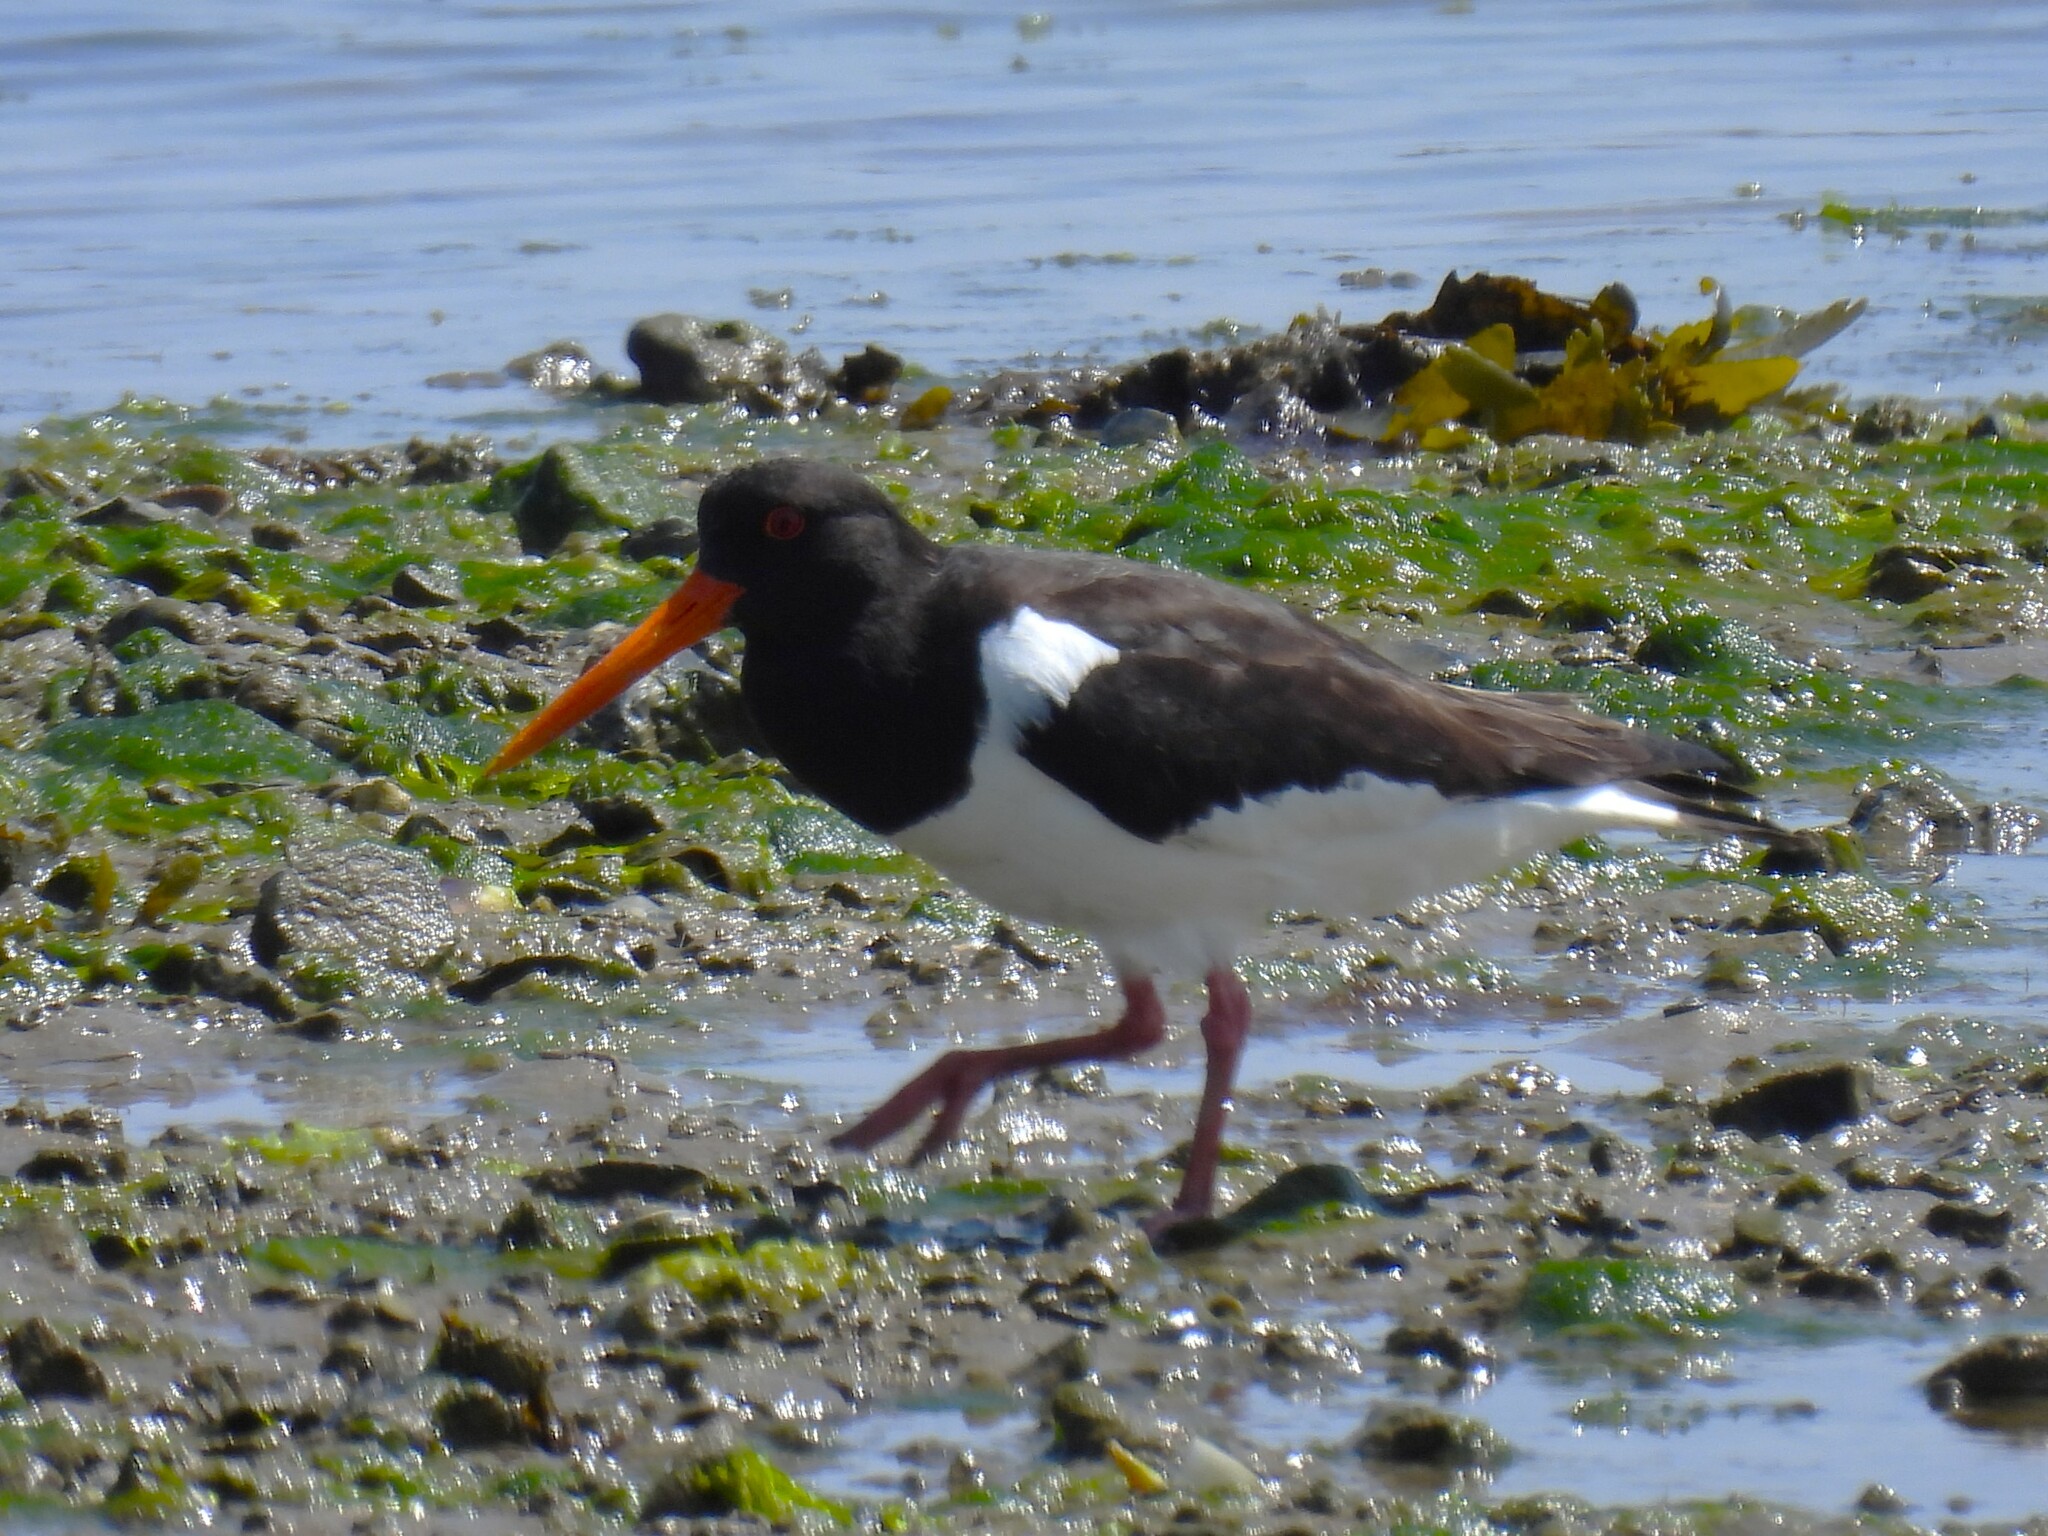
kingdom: Animalia
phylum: Chordata
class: Aves
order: Charadriiformes
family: Haematopodidae
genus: Haematopus
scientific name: Haematopus ostralegus
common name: Eurasian oystercatcher
